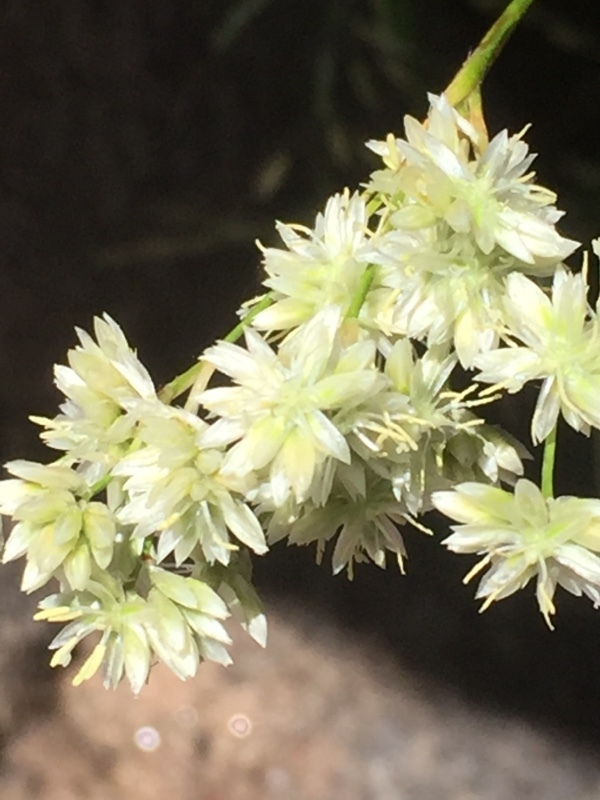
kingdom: Plantae
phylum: Tracheophyta
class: Liliopsida
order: Poales
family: Juncaceae
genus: Luzula
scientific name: Luzula lactea
